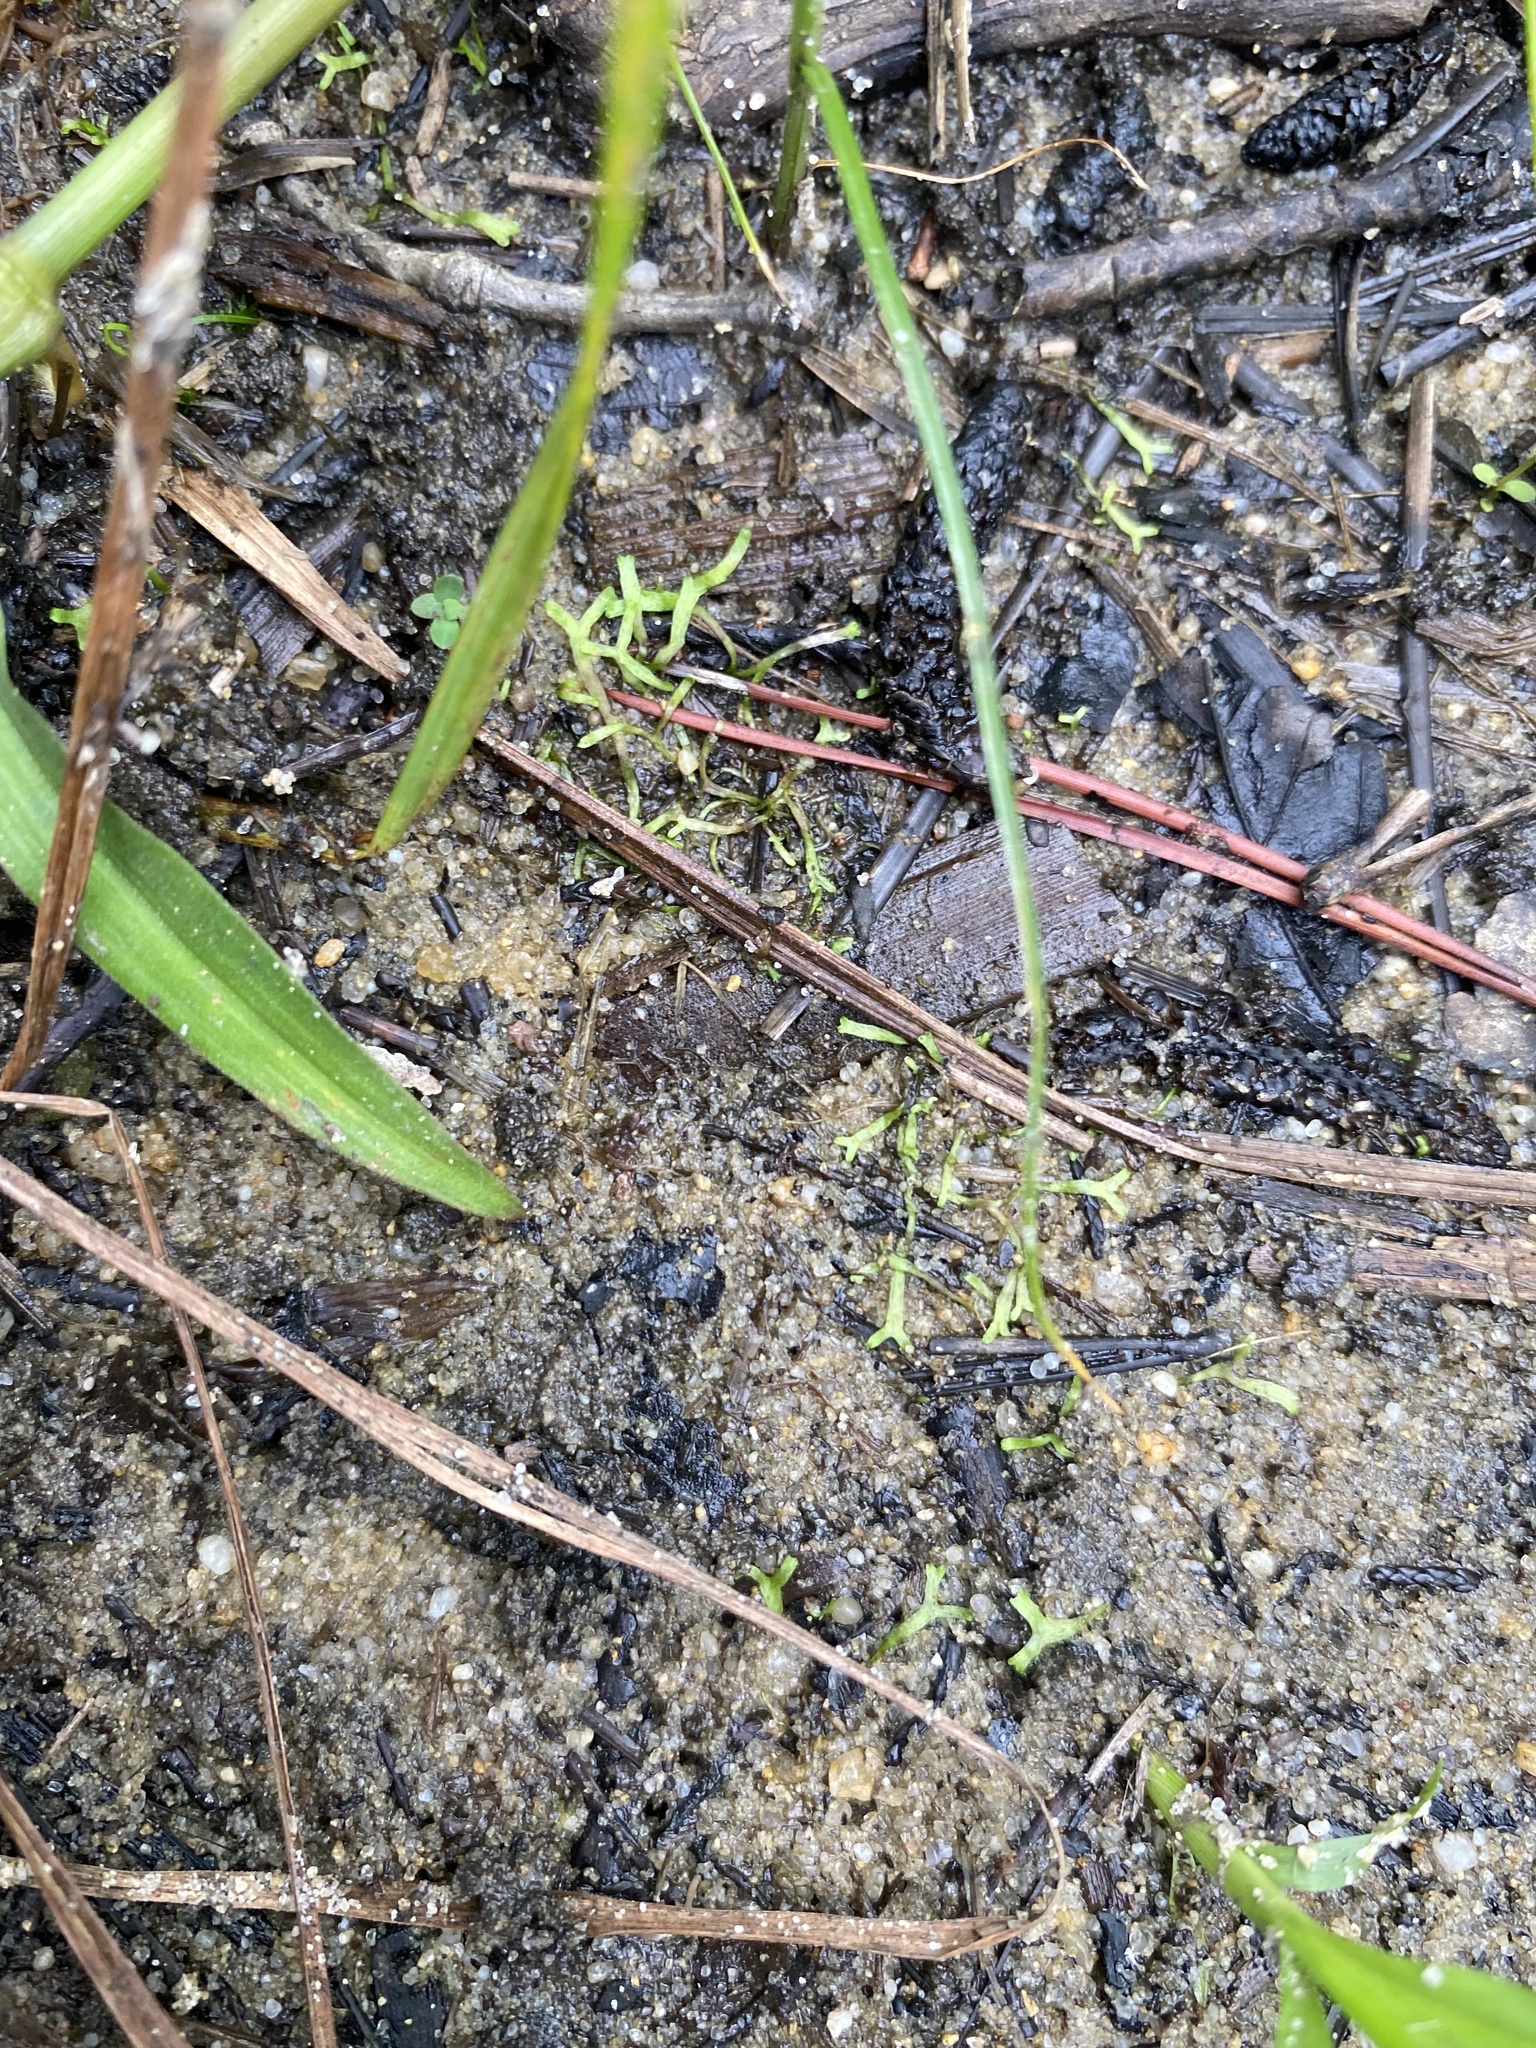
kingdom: Plantae
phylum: Marchantiophyta
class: Marchantiopsida
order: Marchantiales
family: Ricciaceae
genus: Riccia
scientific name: Riccia fluitans
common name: Floating crystalwort
